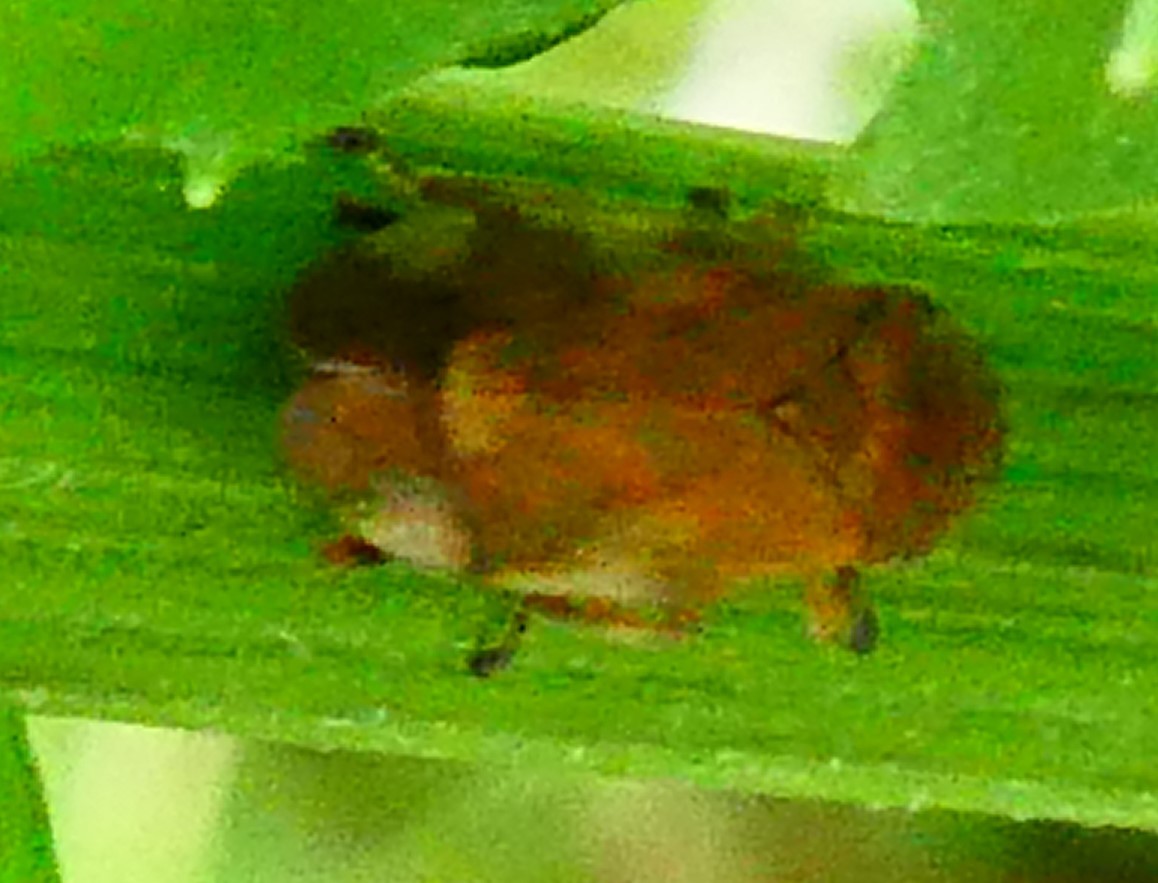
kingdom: Animalia
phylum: Arthropoda
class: Insecta
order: Hemiptera
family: Aphrophoridae
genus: Philaenus
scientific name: Philaenus spumarius
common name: Meadow spittlebug
